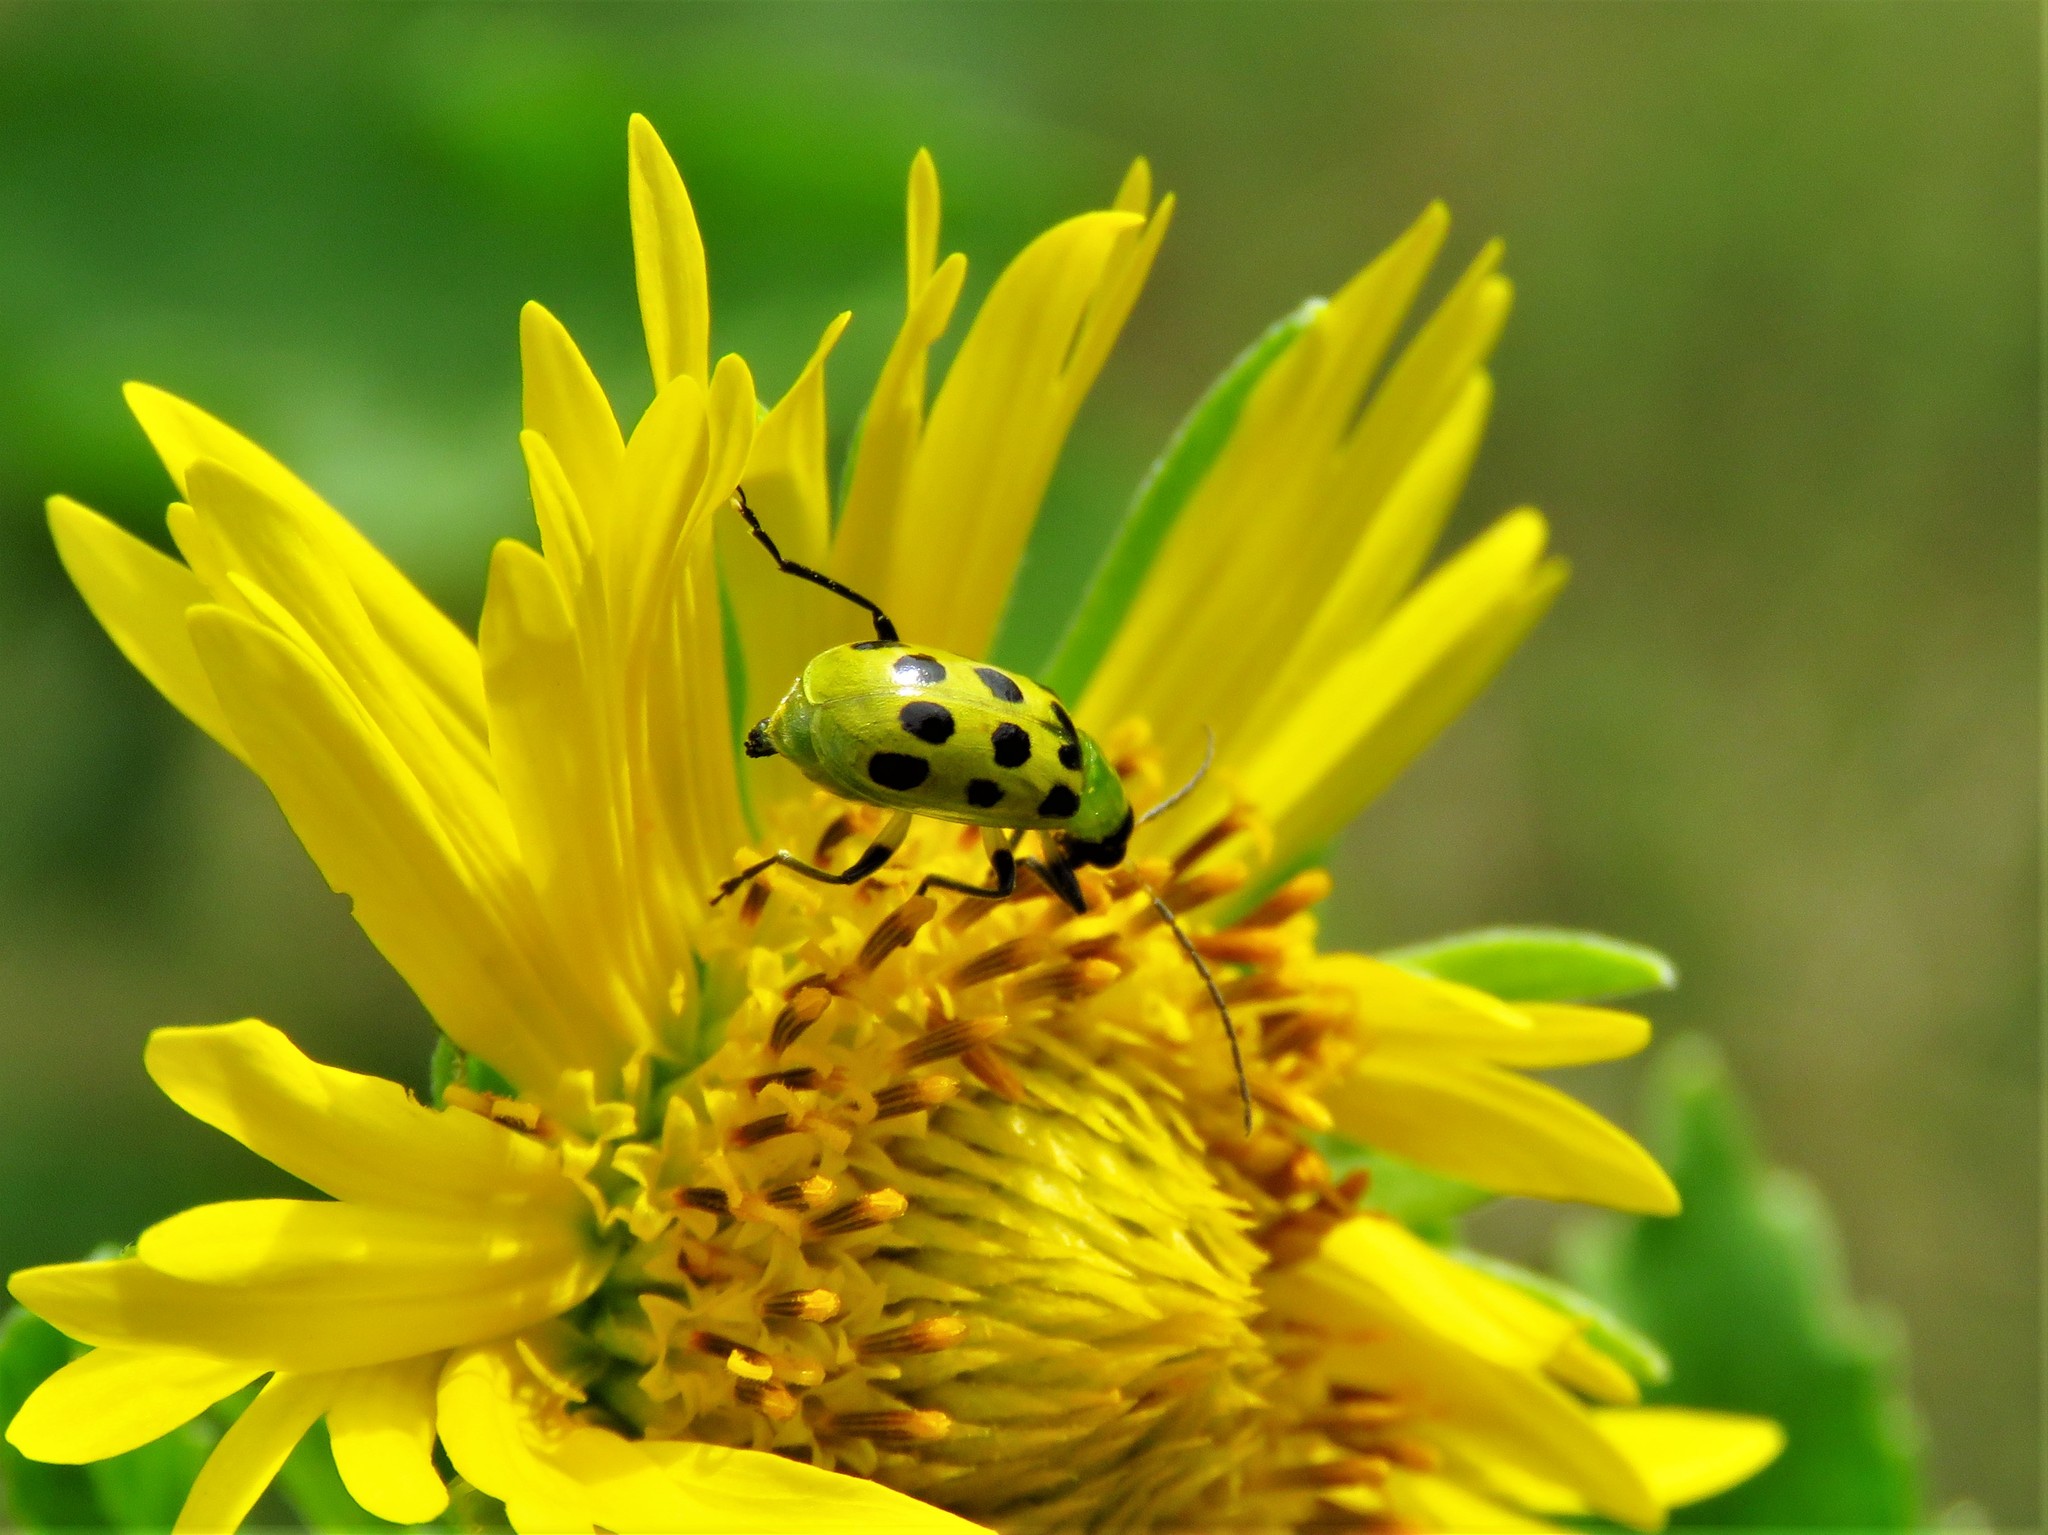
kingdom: Animalia
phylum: Arthropoda
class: Insecta
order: Coleoptera
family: Chrysomelidae
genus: Diabrotica
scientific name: Diabrotica undecimpunctata
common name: Spotted cucumber beetle
